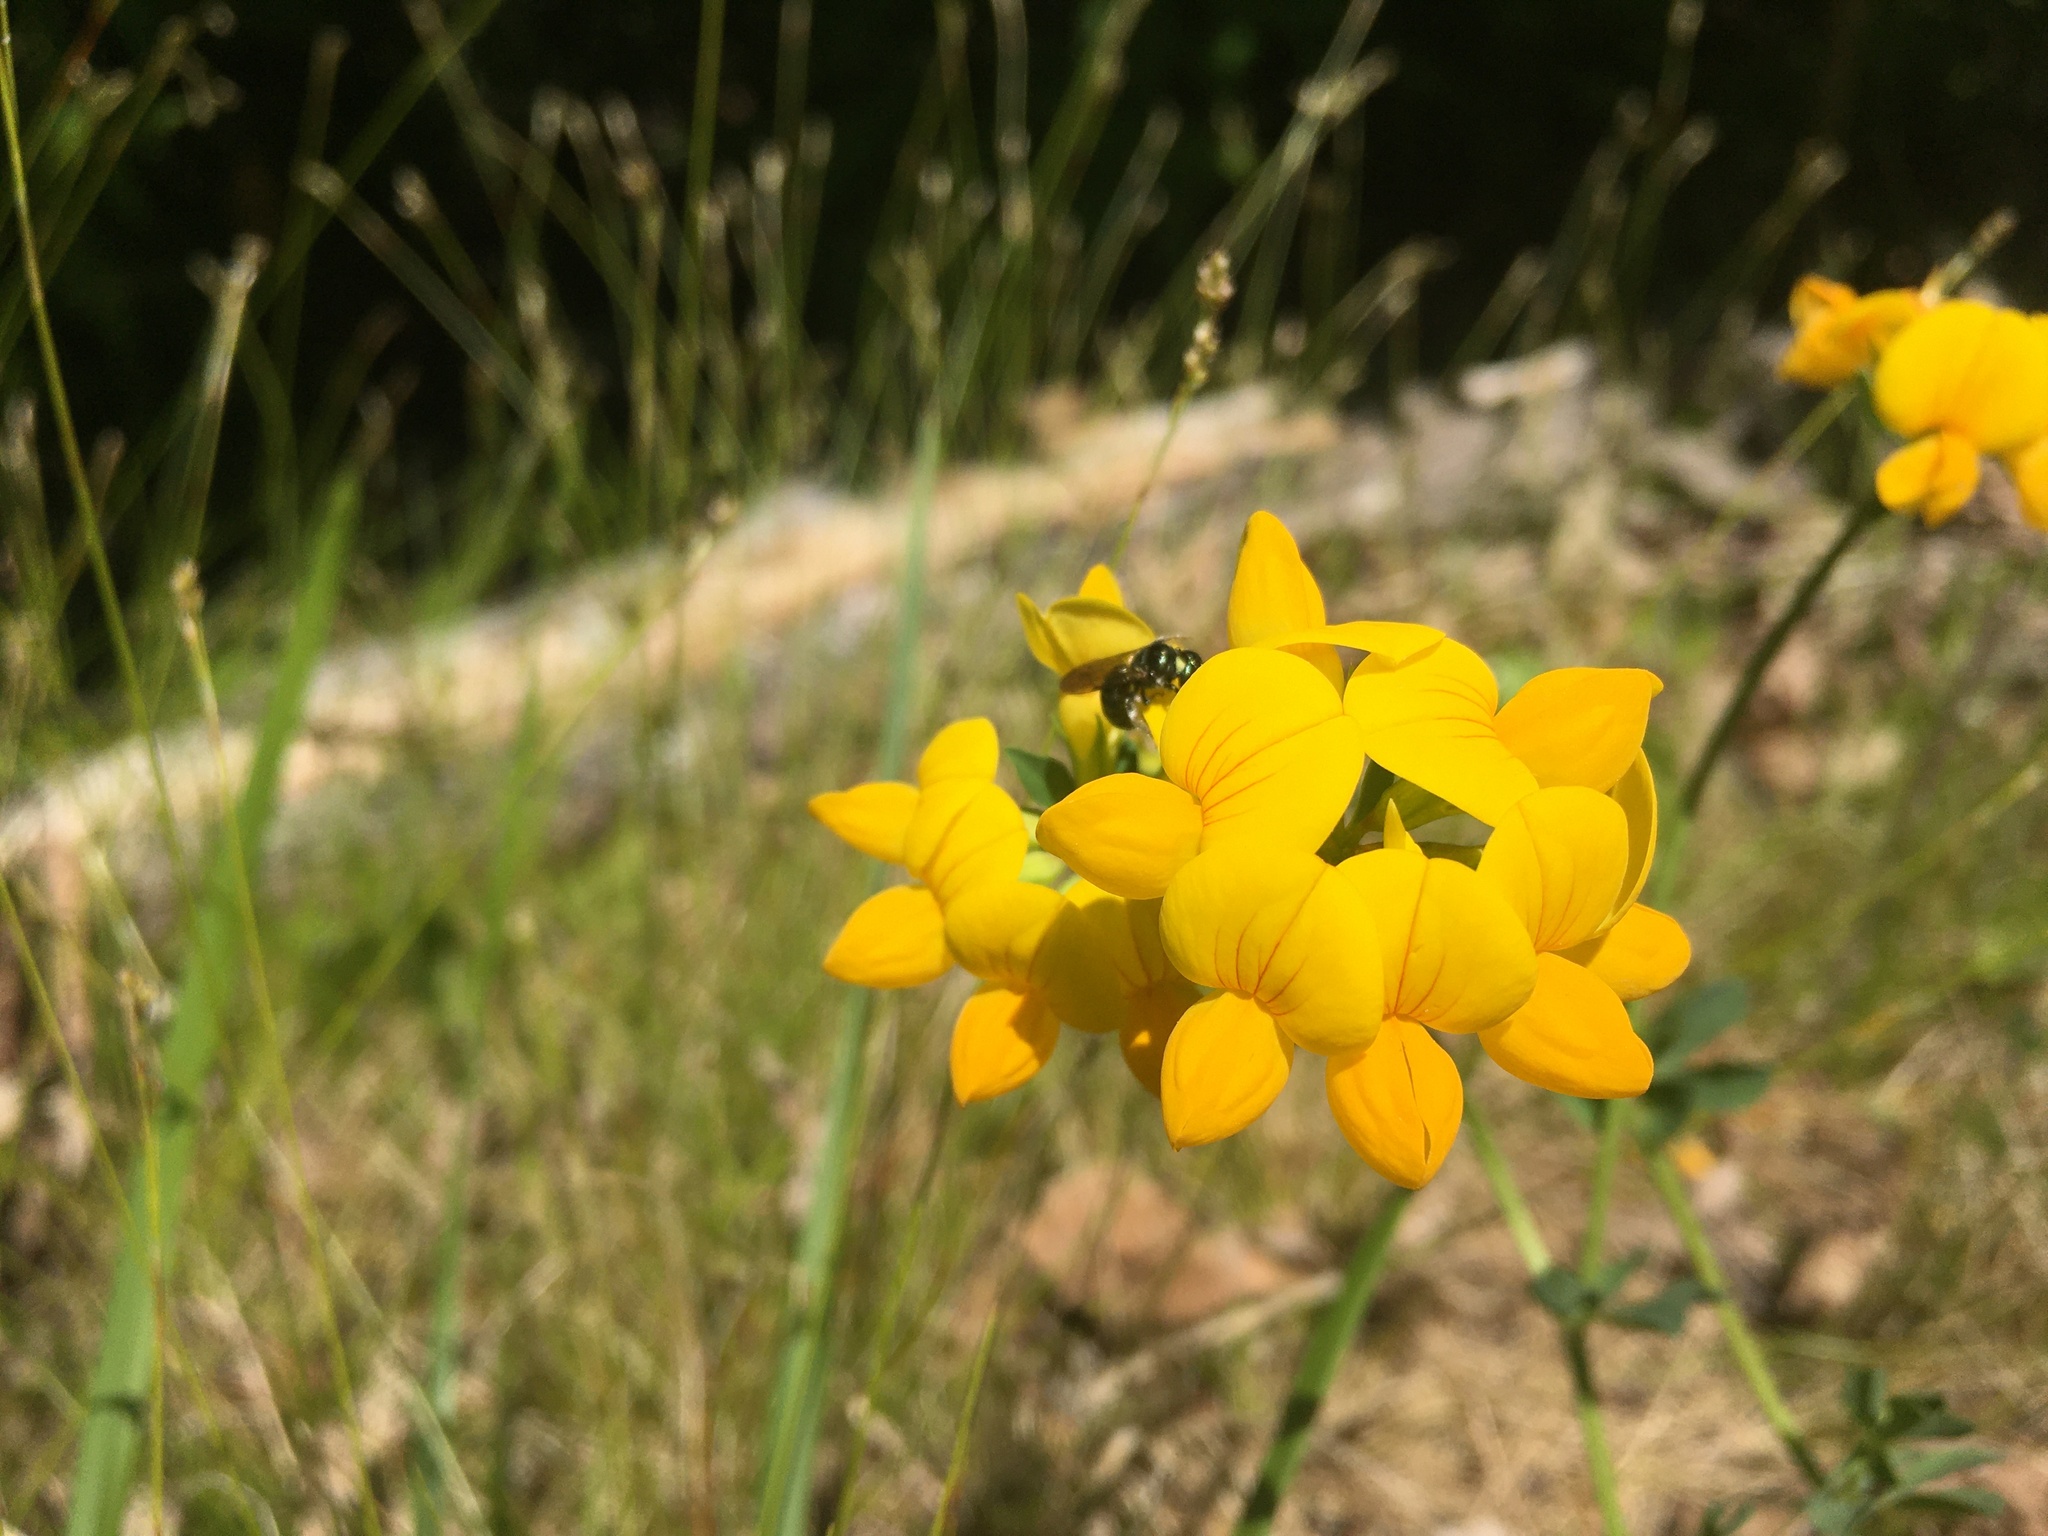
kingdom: Plantae
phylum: Tracheophyta
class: Magnoliopsida
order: Fabales
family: Fabaceae
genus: Lotus
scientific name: Lotus corniculatus
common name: Common bird's-foot-trefoil
